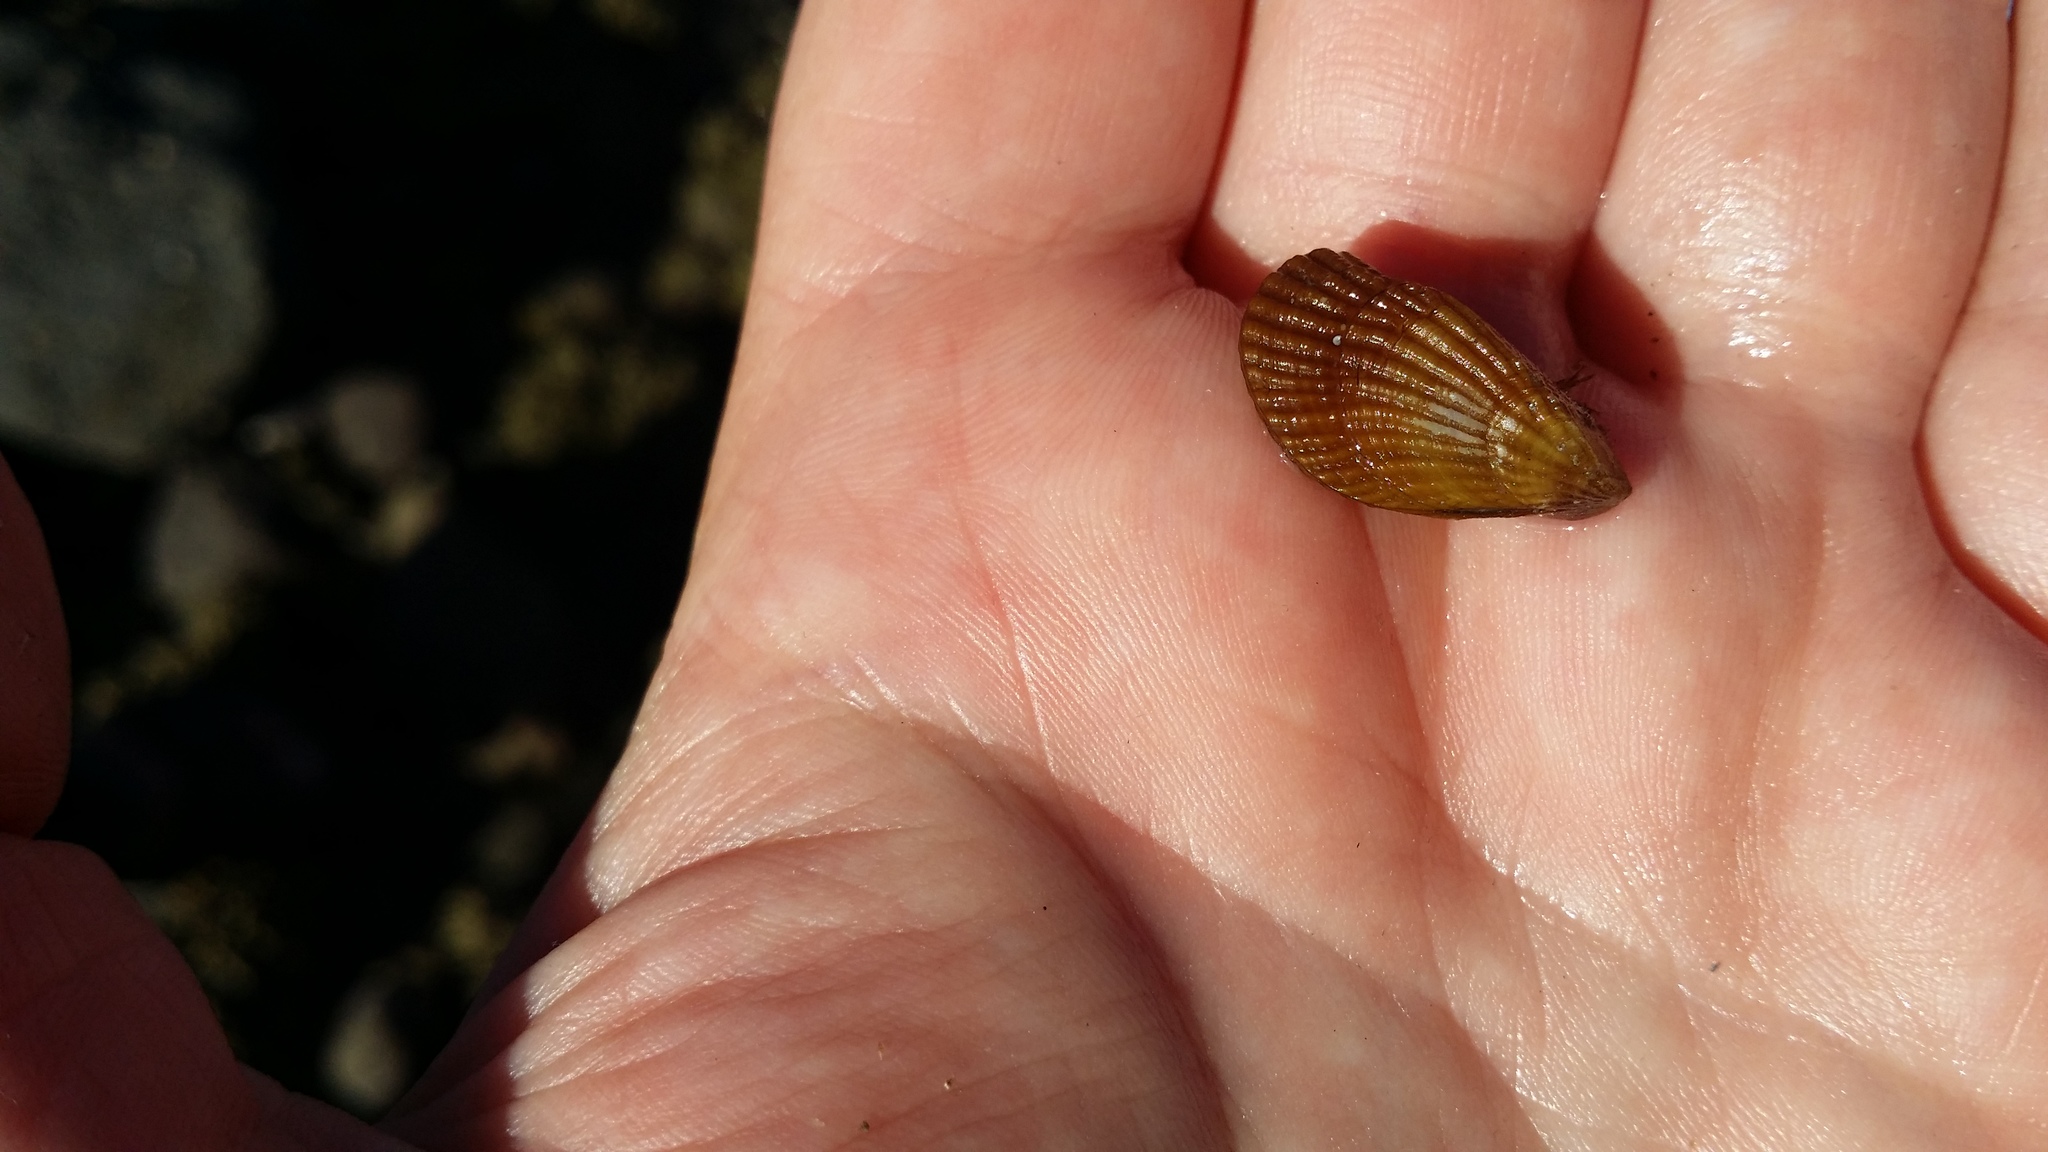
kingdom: Animalia
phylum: Mollusca
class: Bivalvia
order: Mytilida
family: Mytilidae
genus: Aulacomya
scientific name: Aulacomya maoriana
